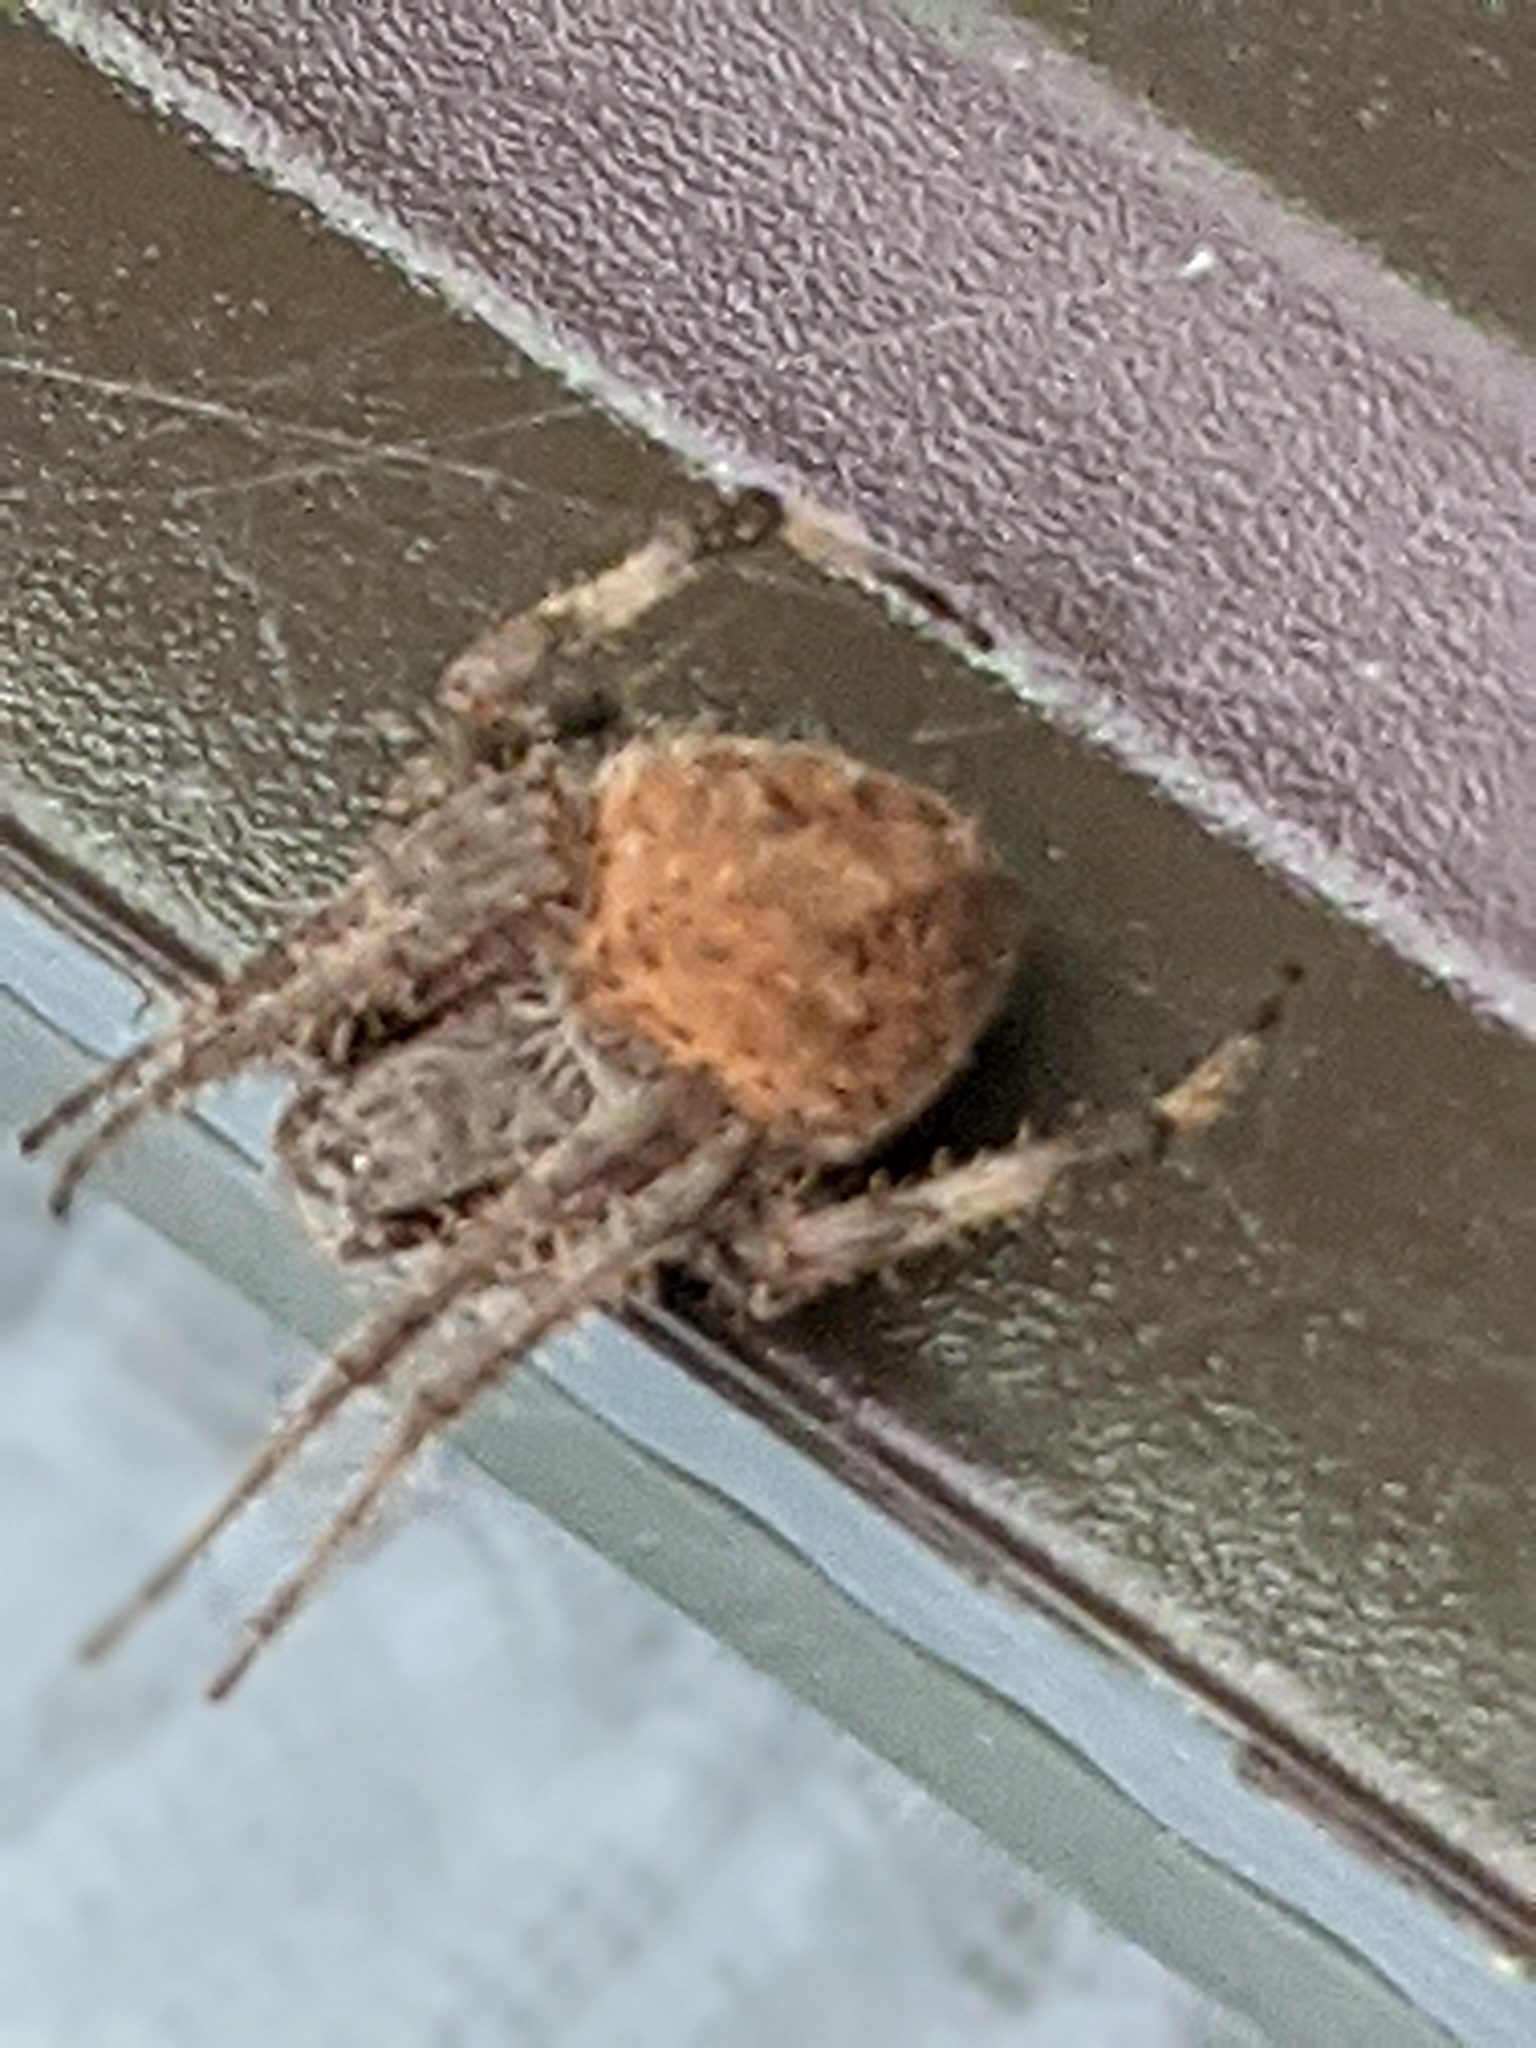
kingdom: Animalia
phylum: Arthropoda
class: Arachnida
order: Araneae
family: Araneidae
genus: Neoscona
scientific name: Neoscona crucifera
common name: Spotted orbweaver
